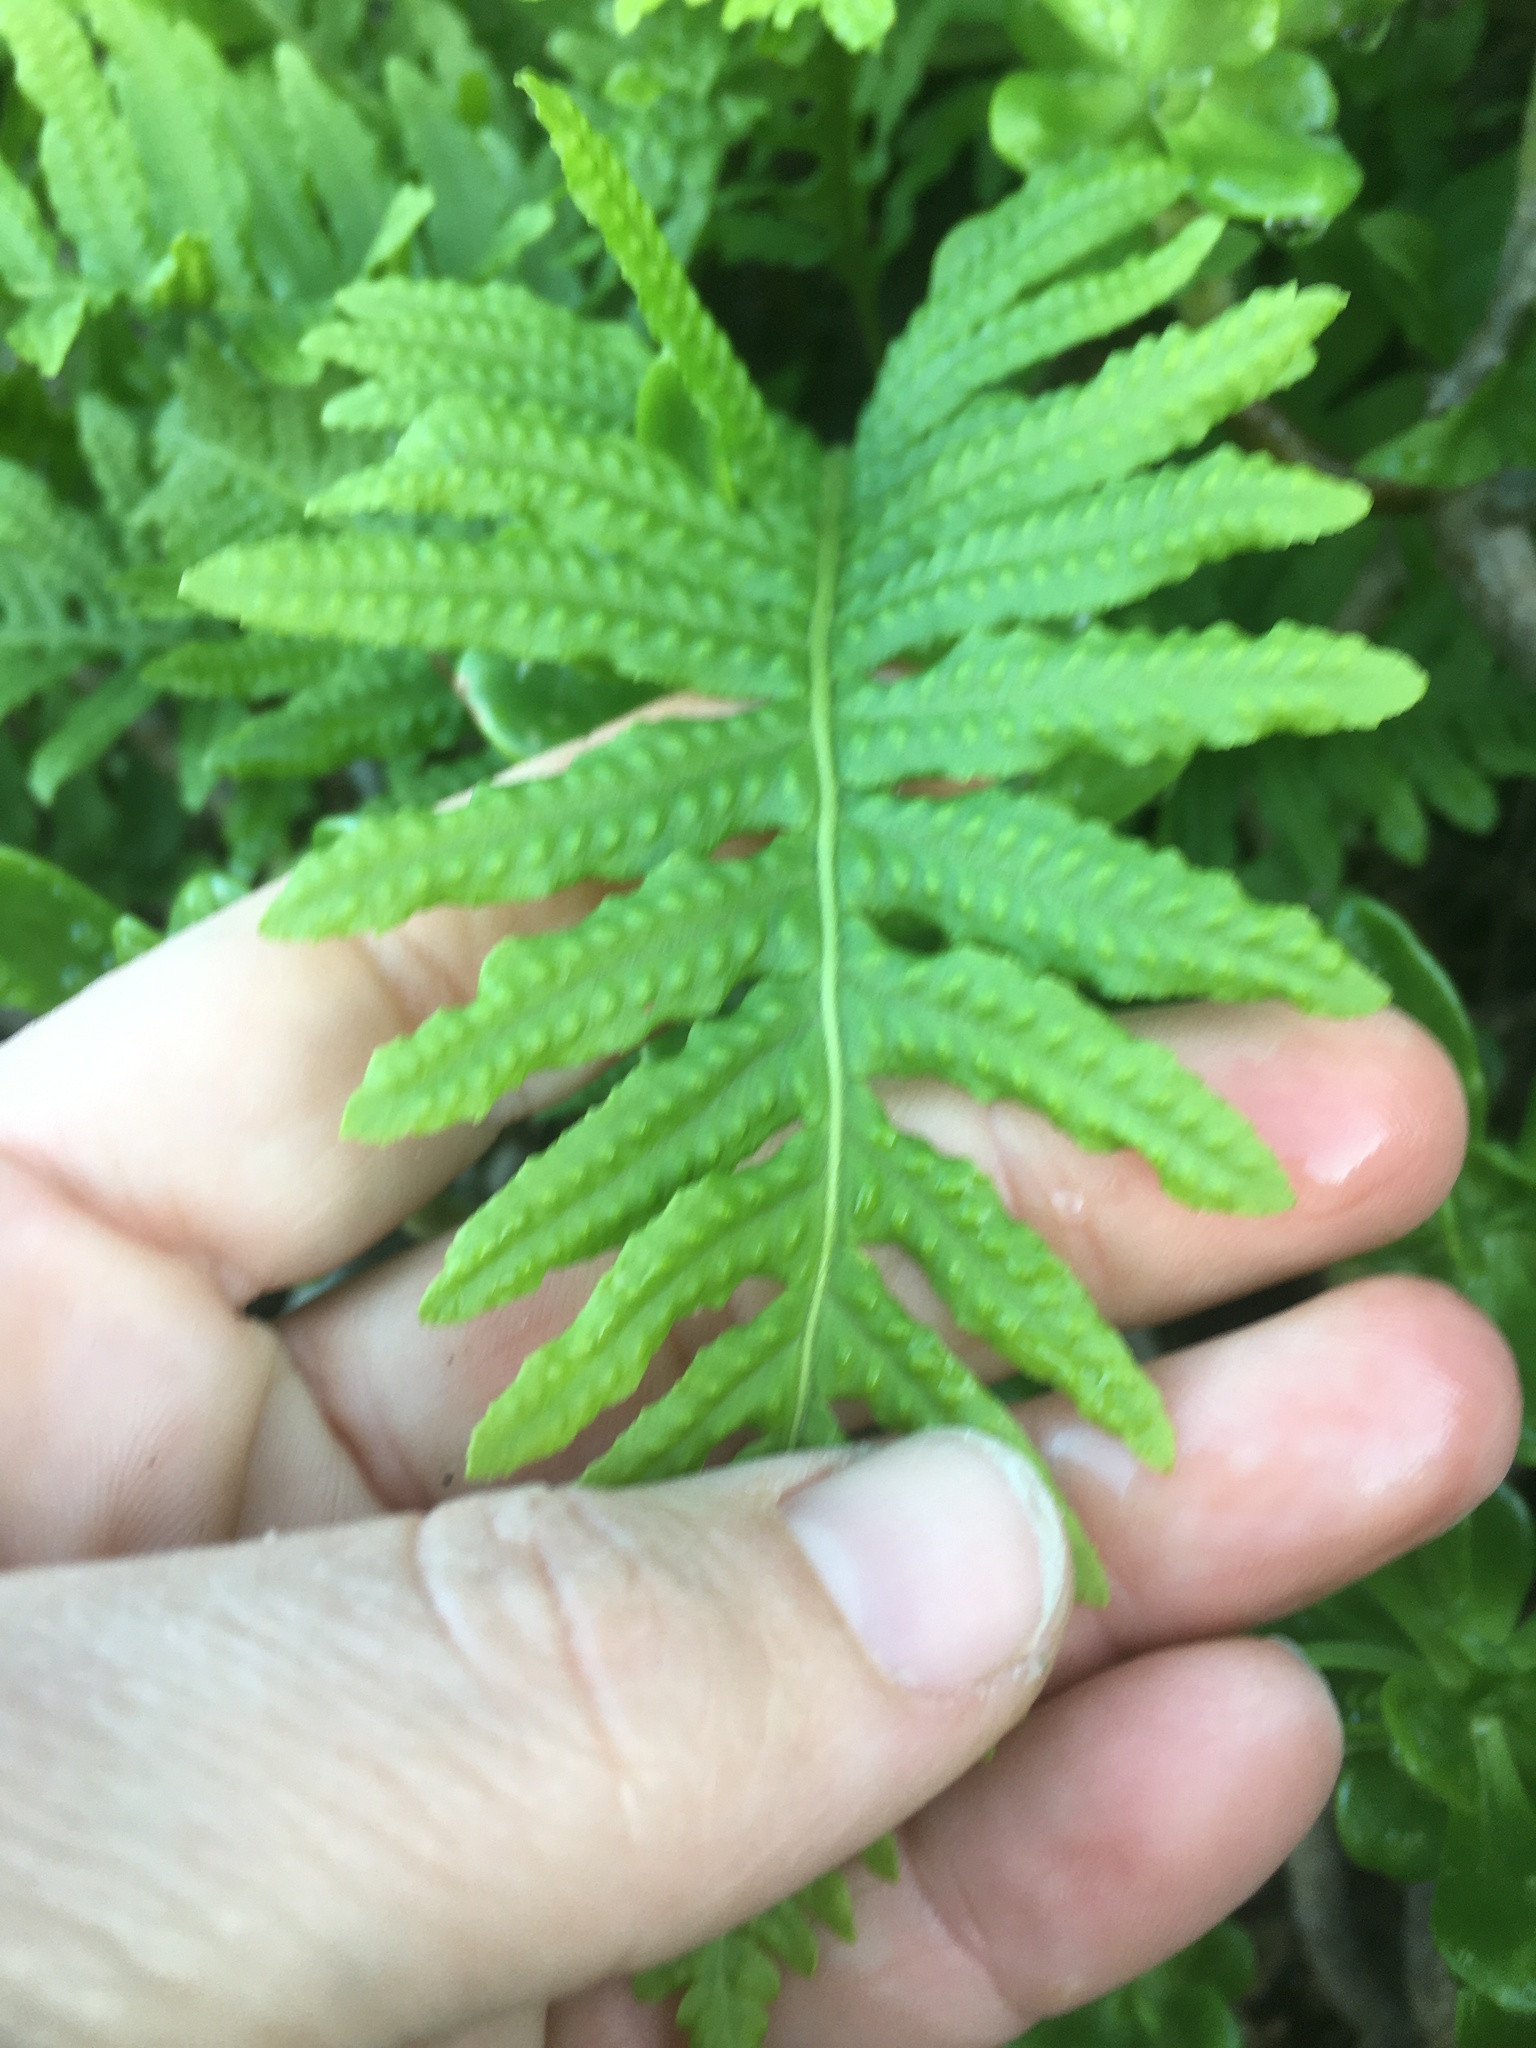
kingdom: Plantae
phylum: Tracheophyta
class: Polypodiopsida
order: Polypodiales
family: Polypodiaceae
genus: Polypodium
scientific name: Polypodium californicum
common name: California polypody
